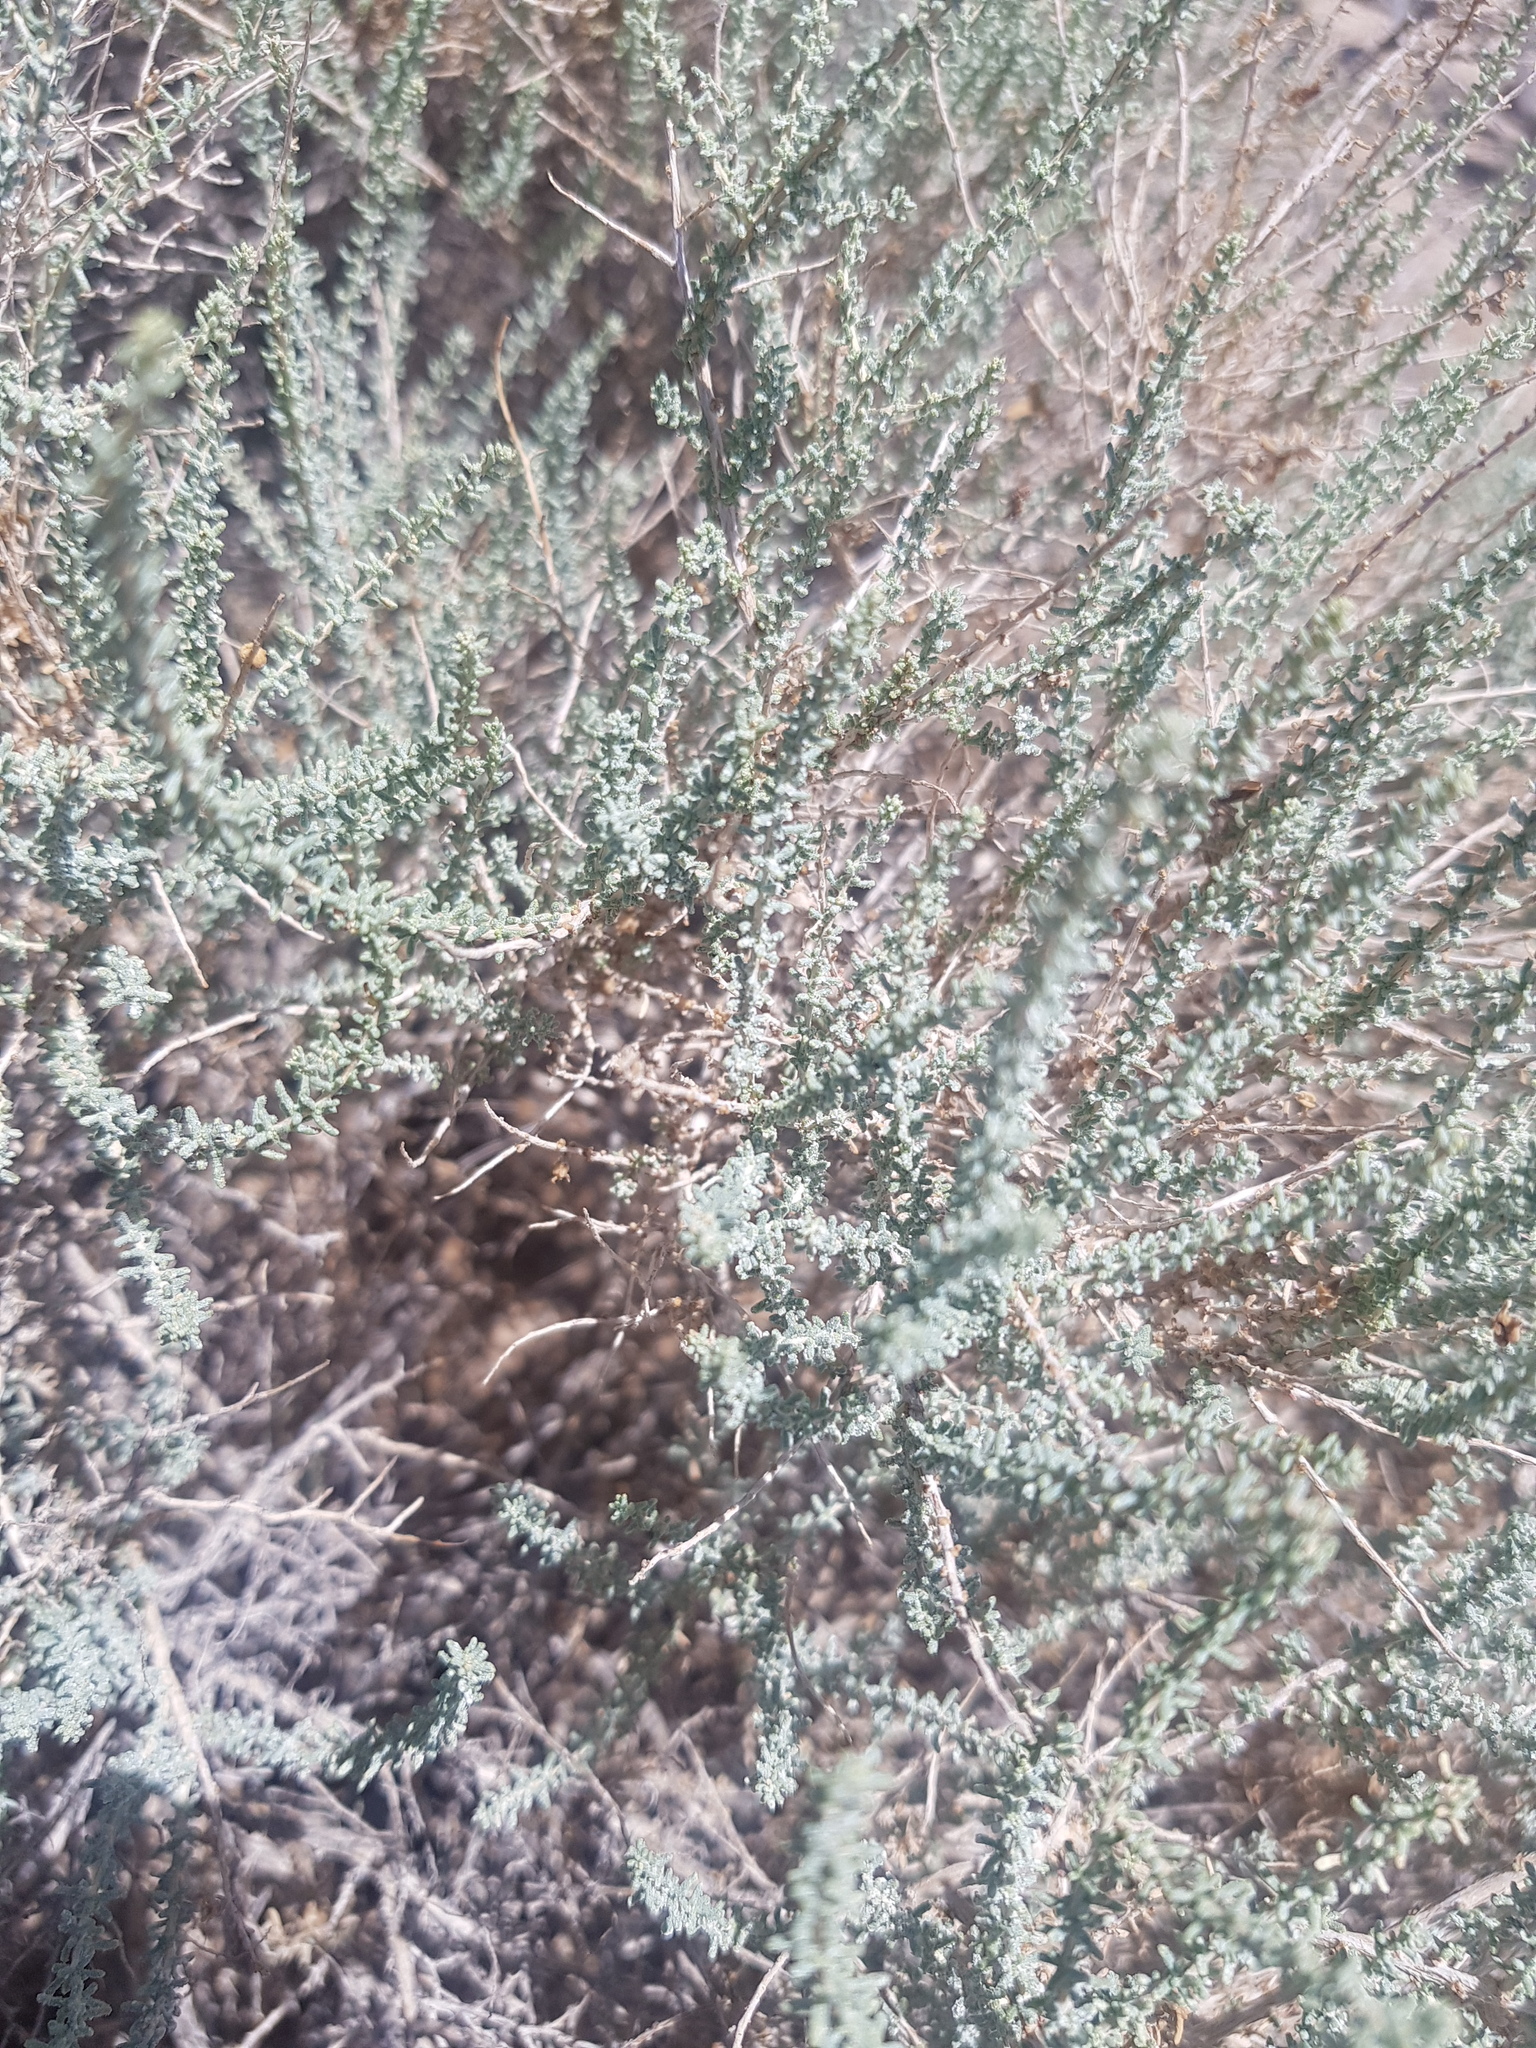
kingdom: Plantae
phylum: Tracheophyta
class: Magnoliopsida
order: Caryophyllales
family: Tamaricaceae
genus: Reaumuria
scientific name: Reaumuria songarica
